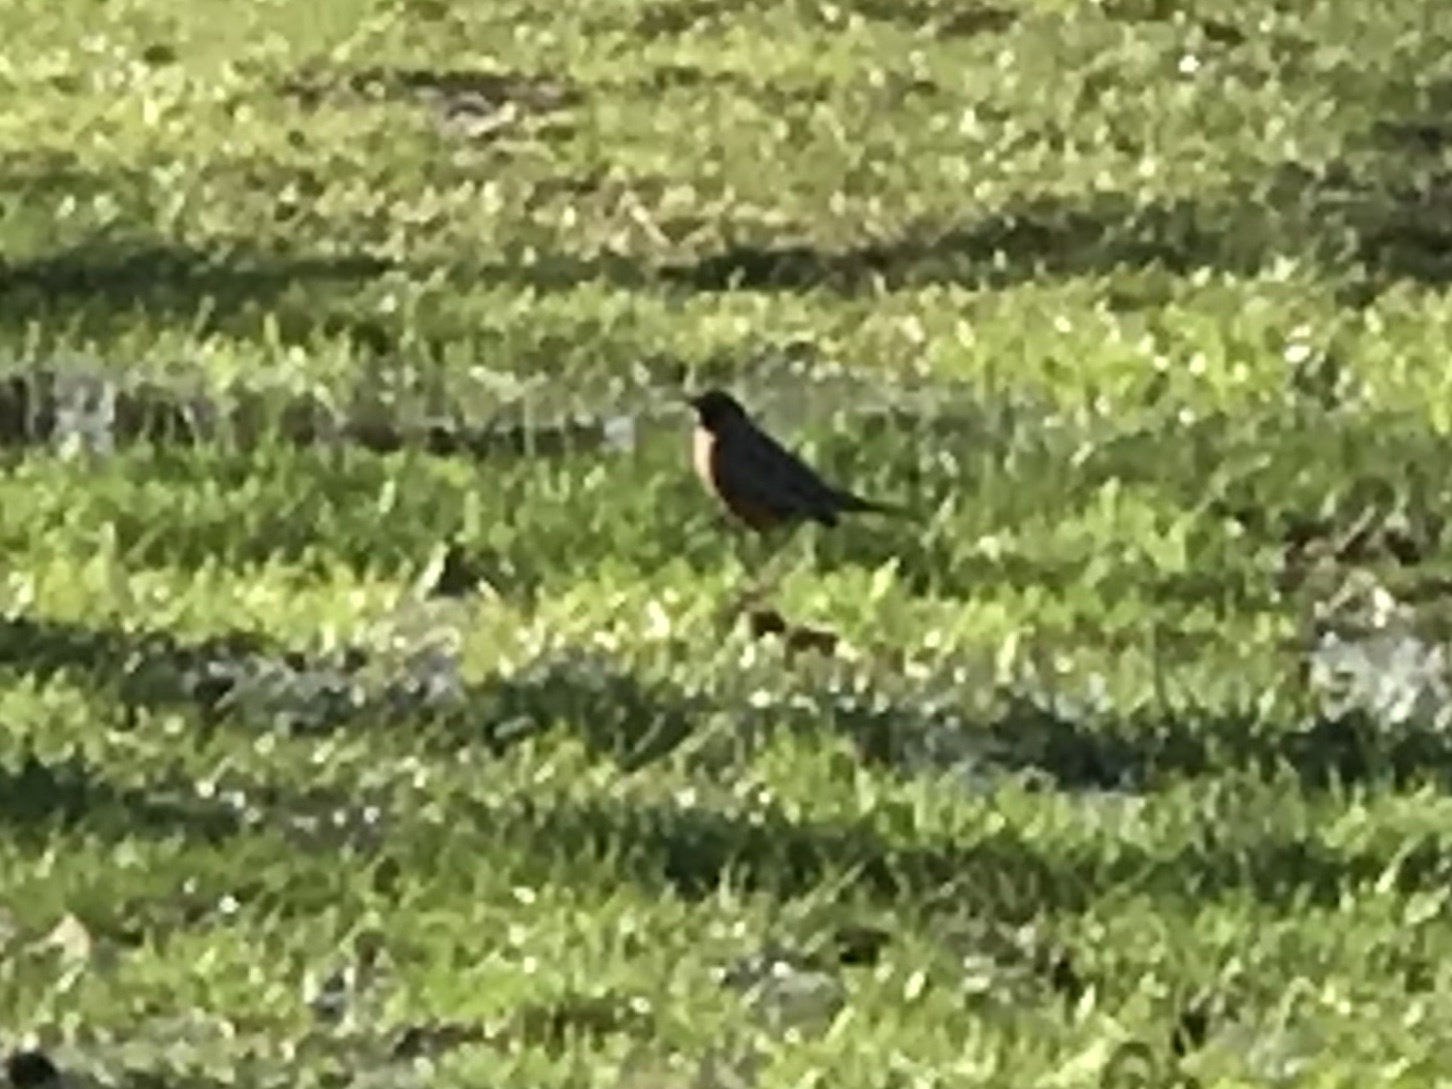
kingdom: Animalia
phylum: Chordata
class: Aves
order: Passeriformes
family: Turdidae
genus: Turdus
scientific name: Turdus migratorius
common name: American robin
